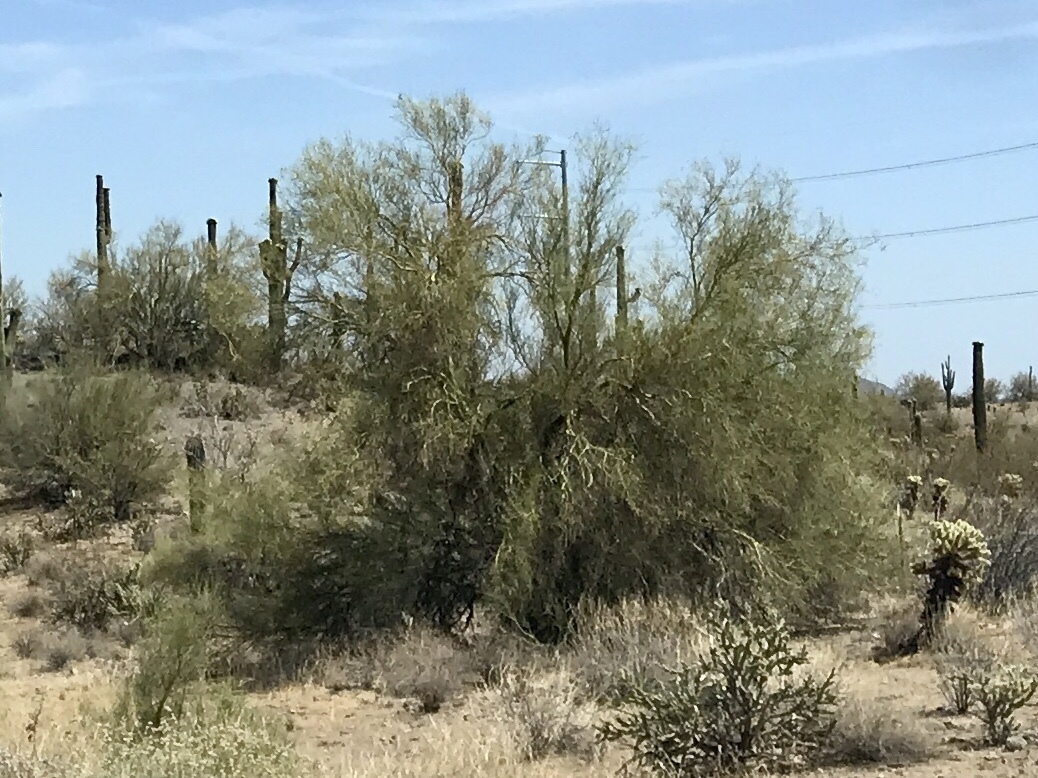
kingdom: Plantae
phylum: Tracheophyta
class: Magnoliopsida
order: Fabales
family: Fabaceae
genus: Parkinsonia
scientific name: Parkinsonia microphylla
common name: Yellow paloverde
